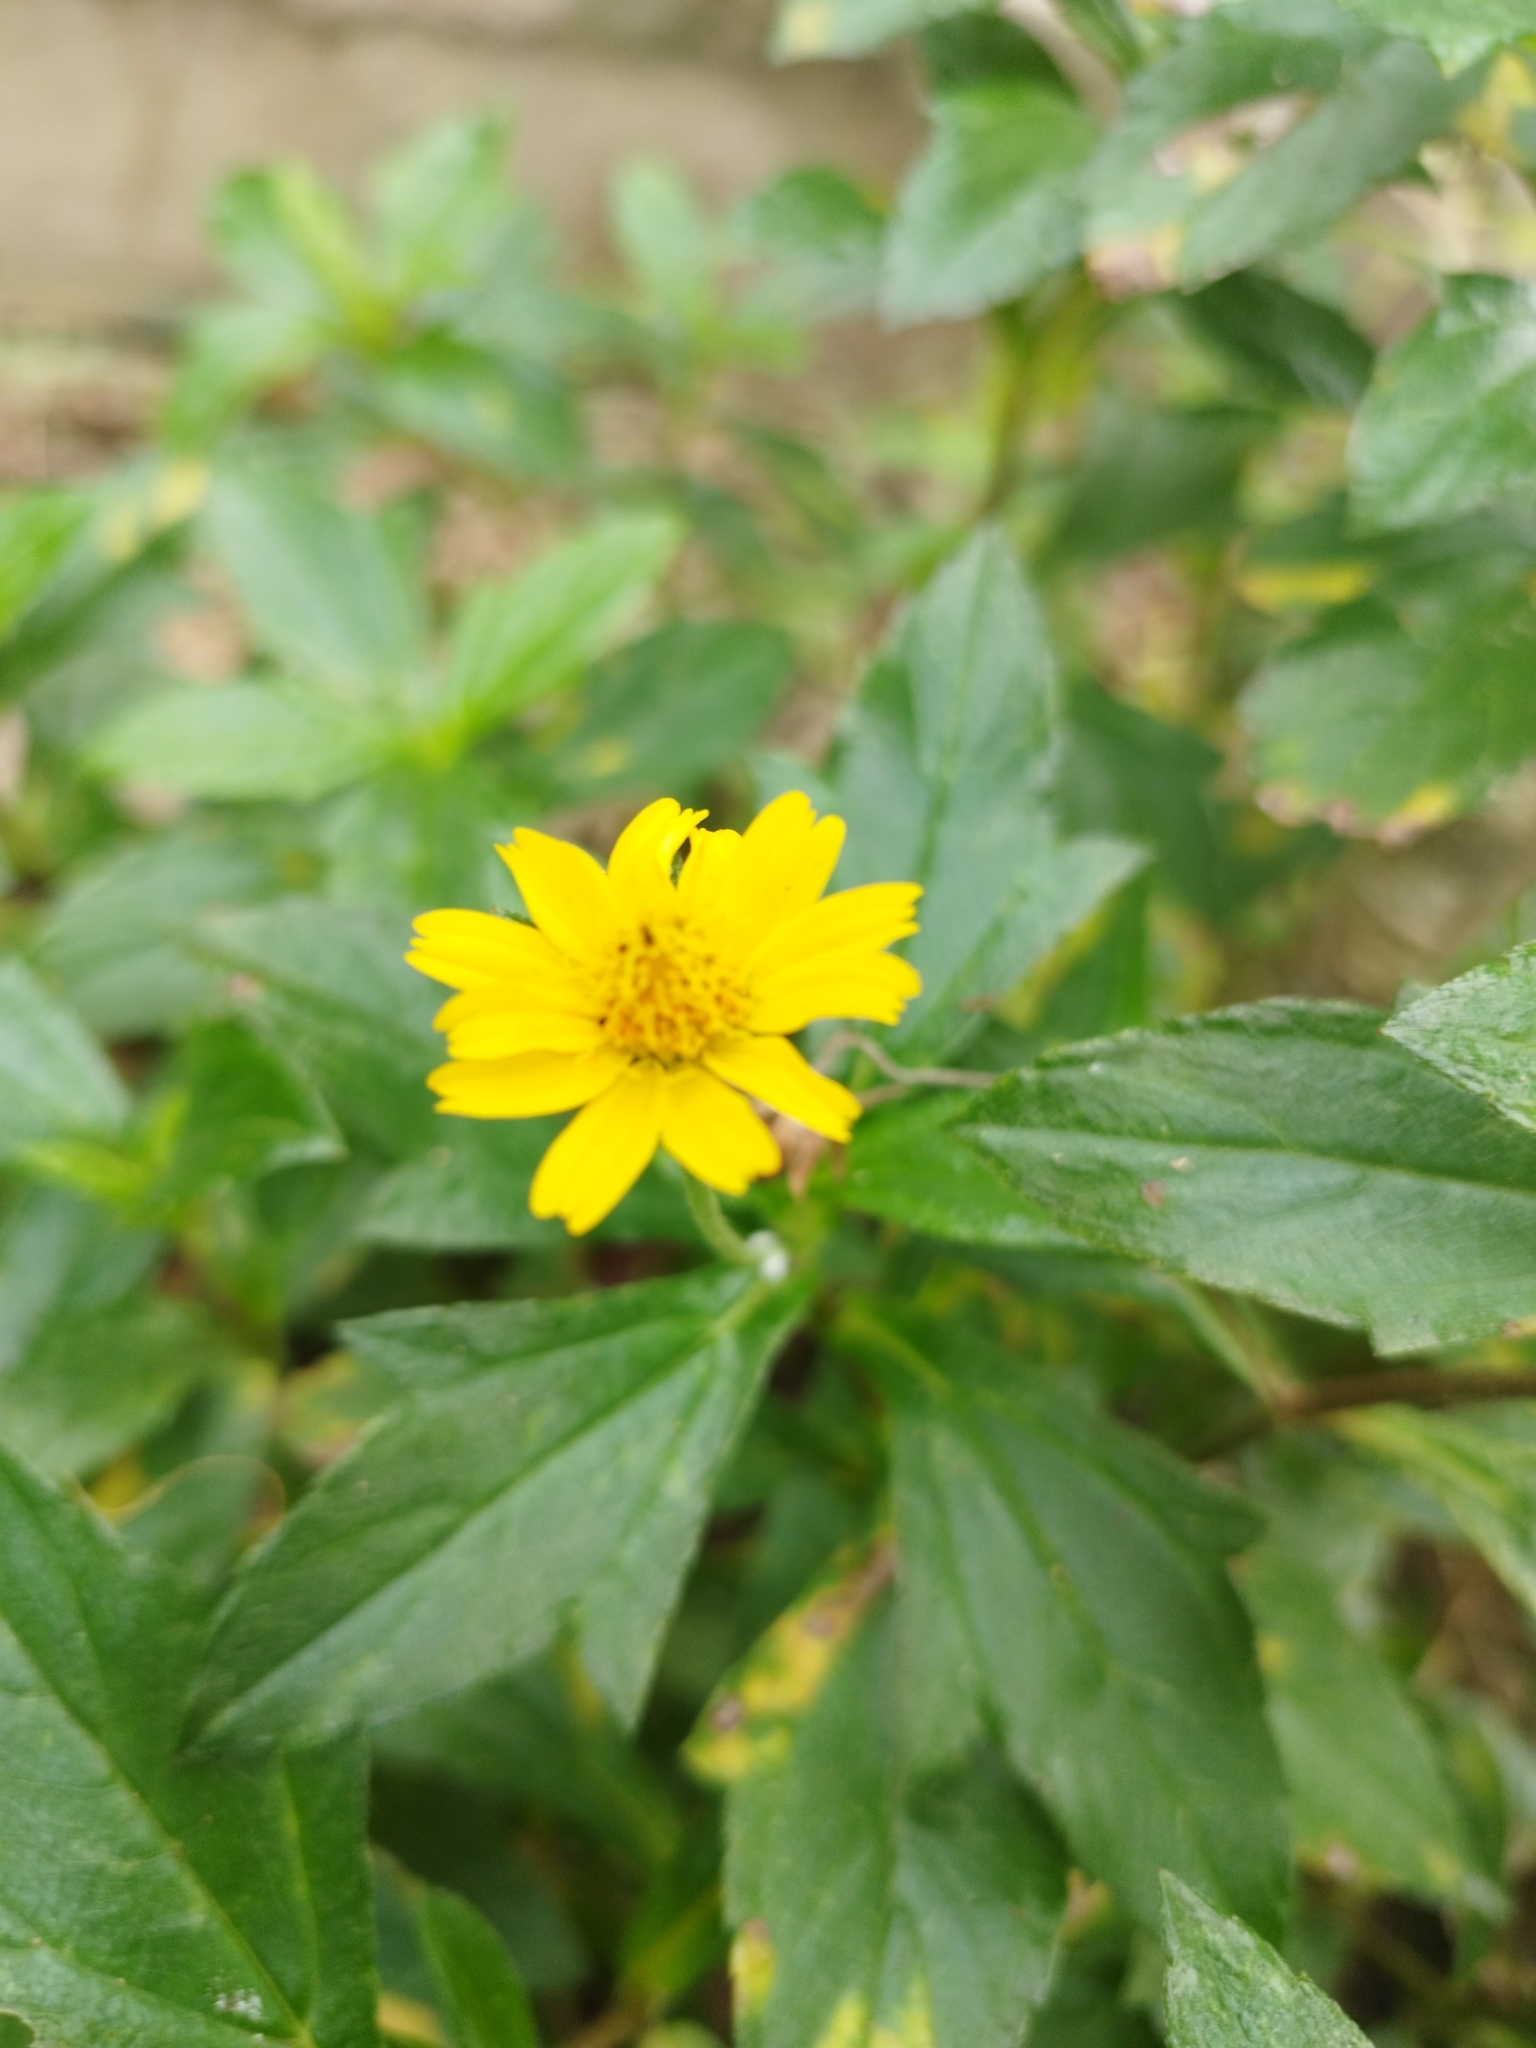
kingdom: Plantae
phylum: Tracheophyta
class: Magnoliopsida
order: Asterales
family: Asteraceae
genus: Sphagneticola
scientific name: Sphagneticola trilobata
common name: Bay biscayne creeping-oxeye
